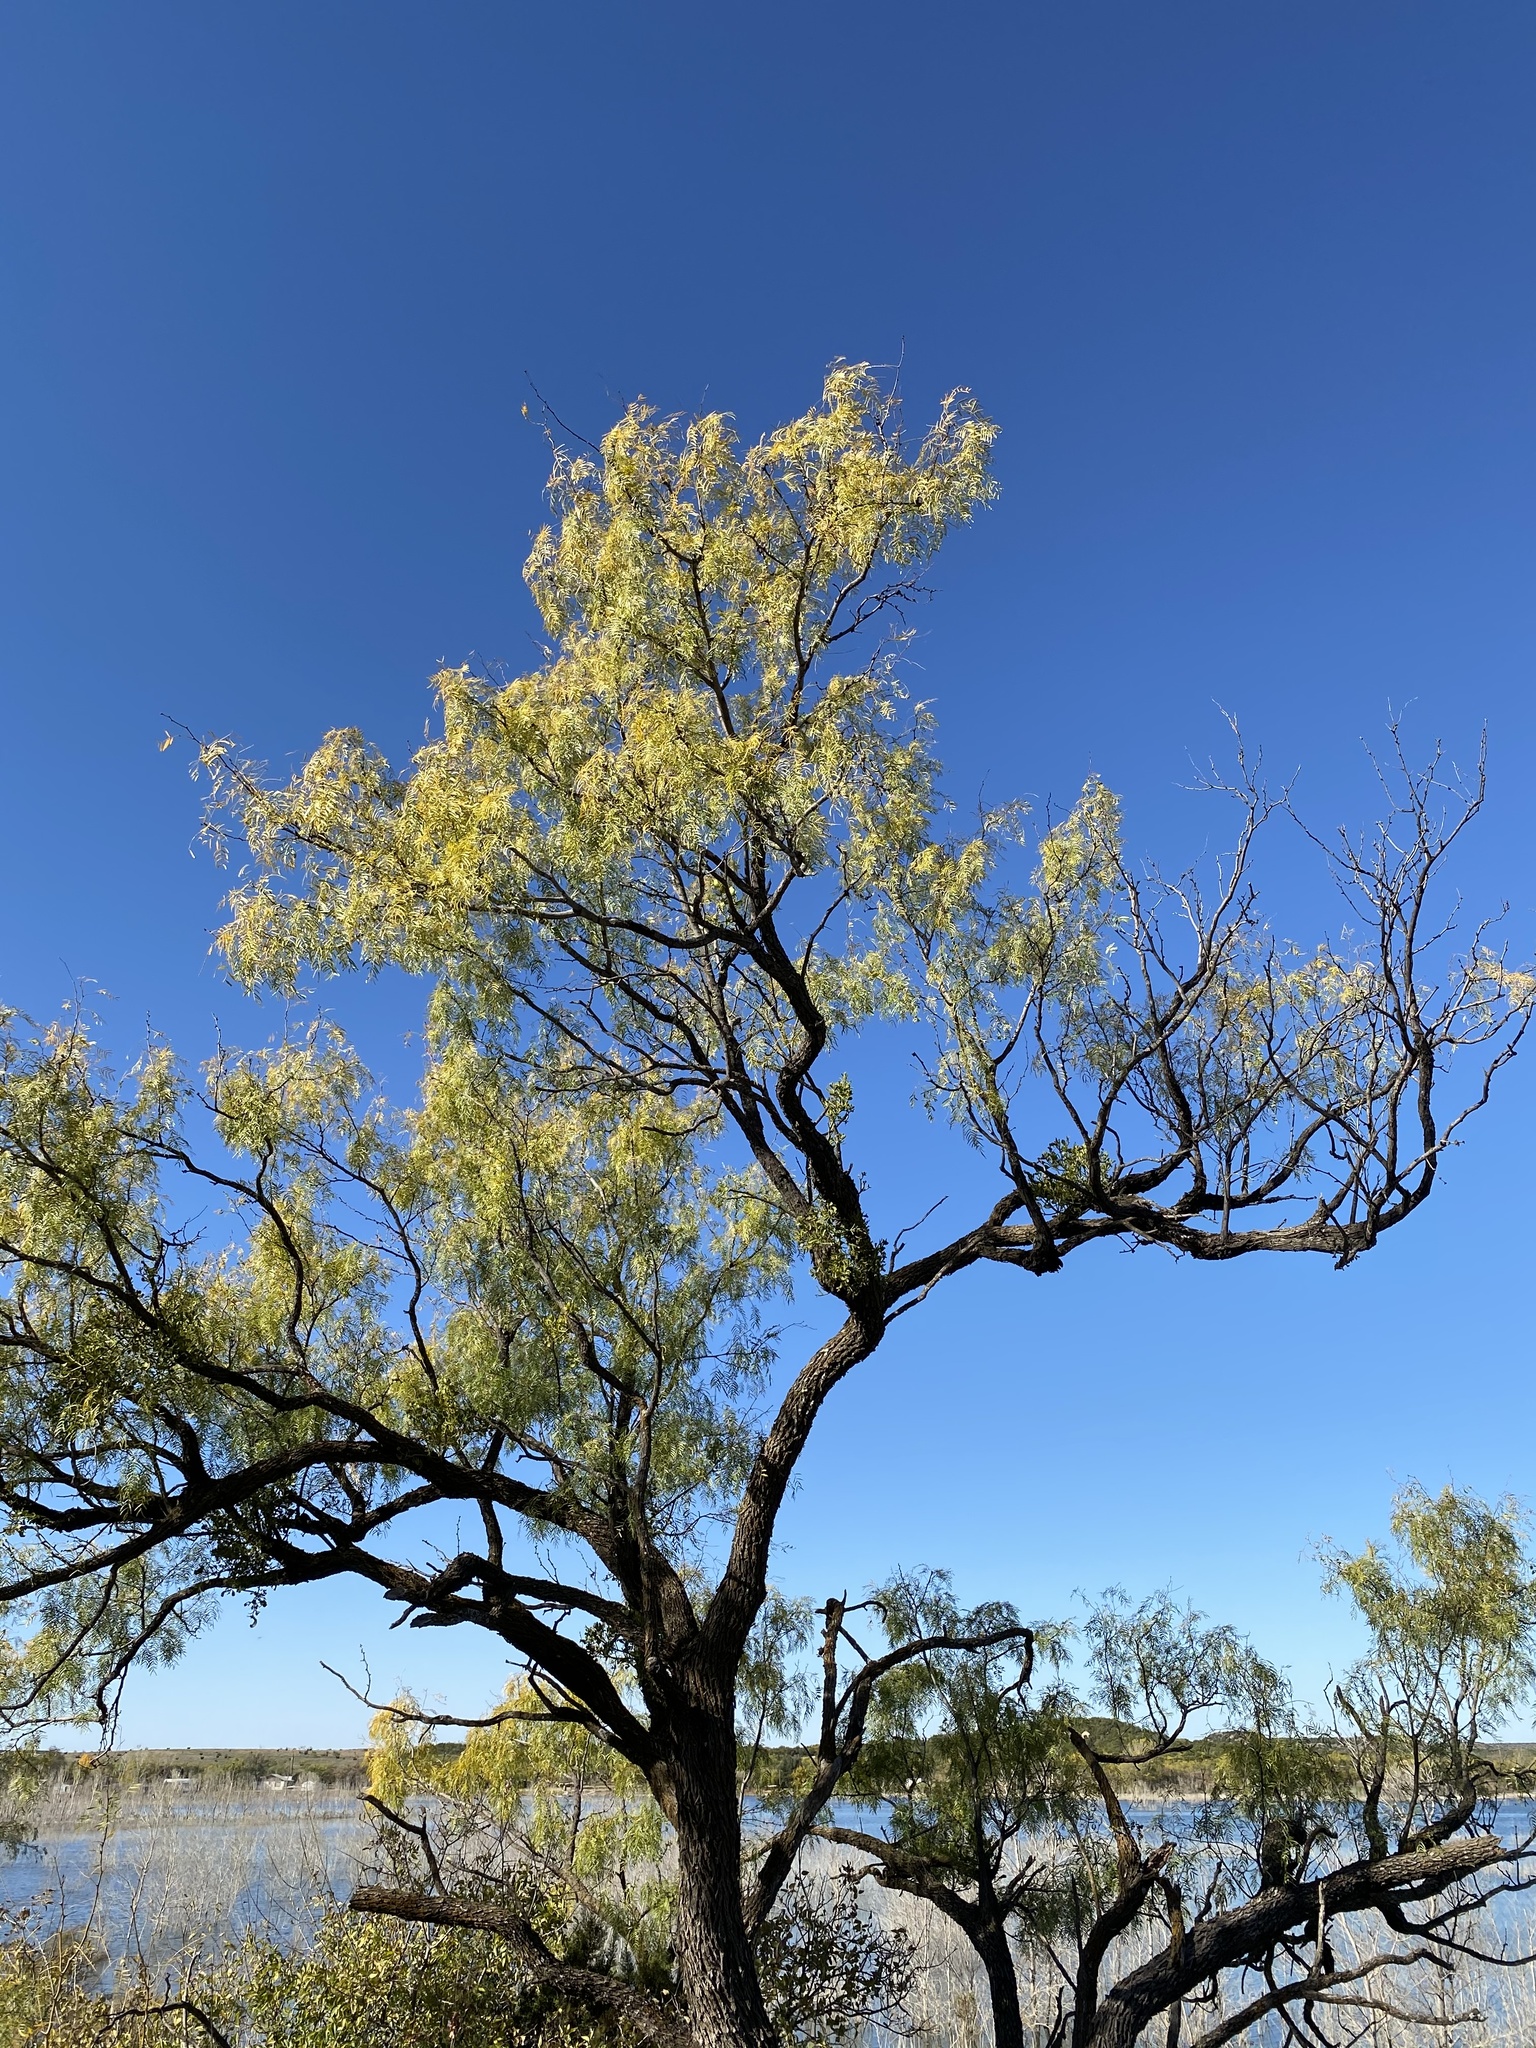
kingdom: Plantae
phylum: Tracheophyta
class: Magnoliopsida
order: Fabales
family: Fabaceae
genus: Prosopis
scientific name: Prosopis glandulosa
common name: Honey mesquite
